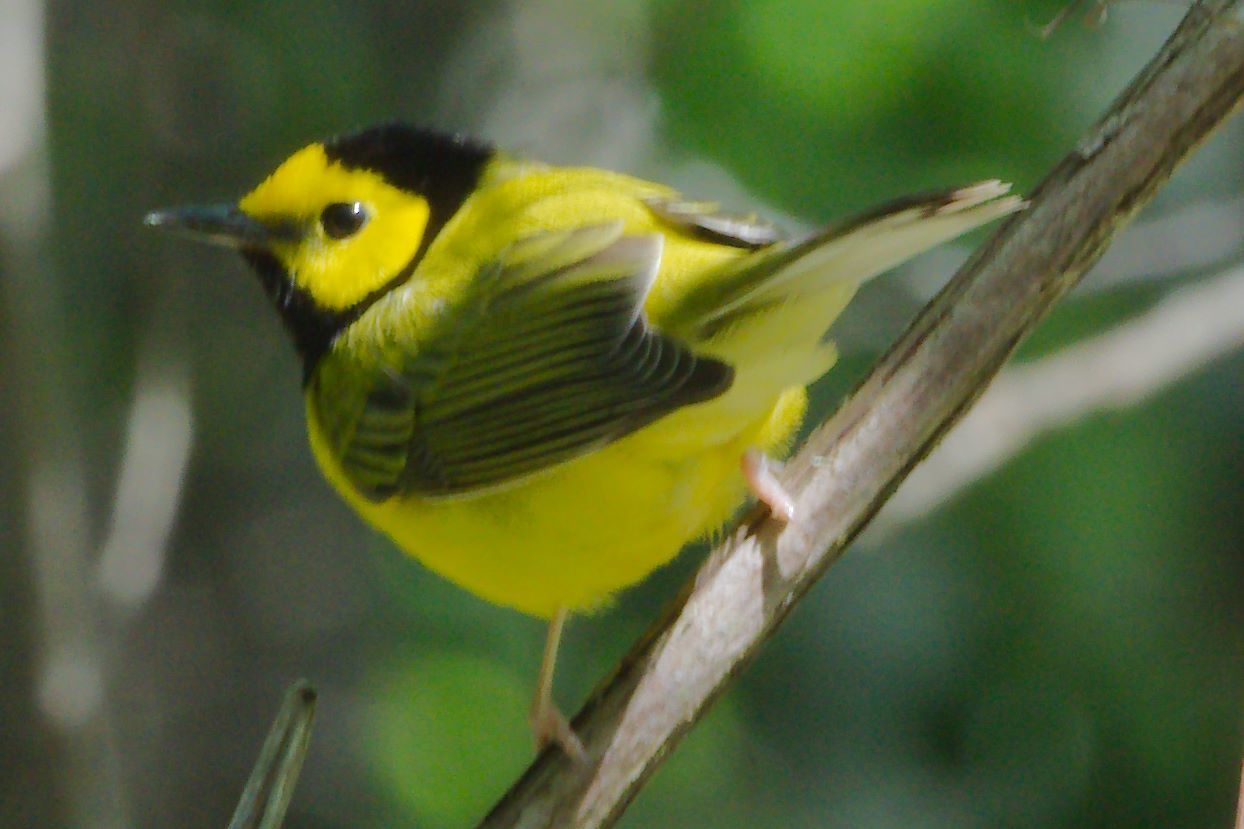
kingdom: Animalia
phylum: Chordata
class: Aves
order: Passeriformes
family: Parulidae
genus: Setophaga
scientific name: Setophaga citrina
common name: Hooded warbler
